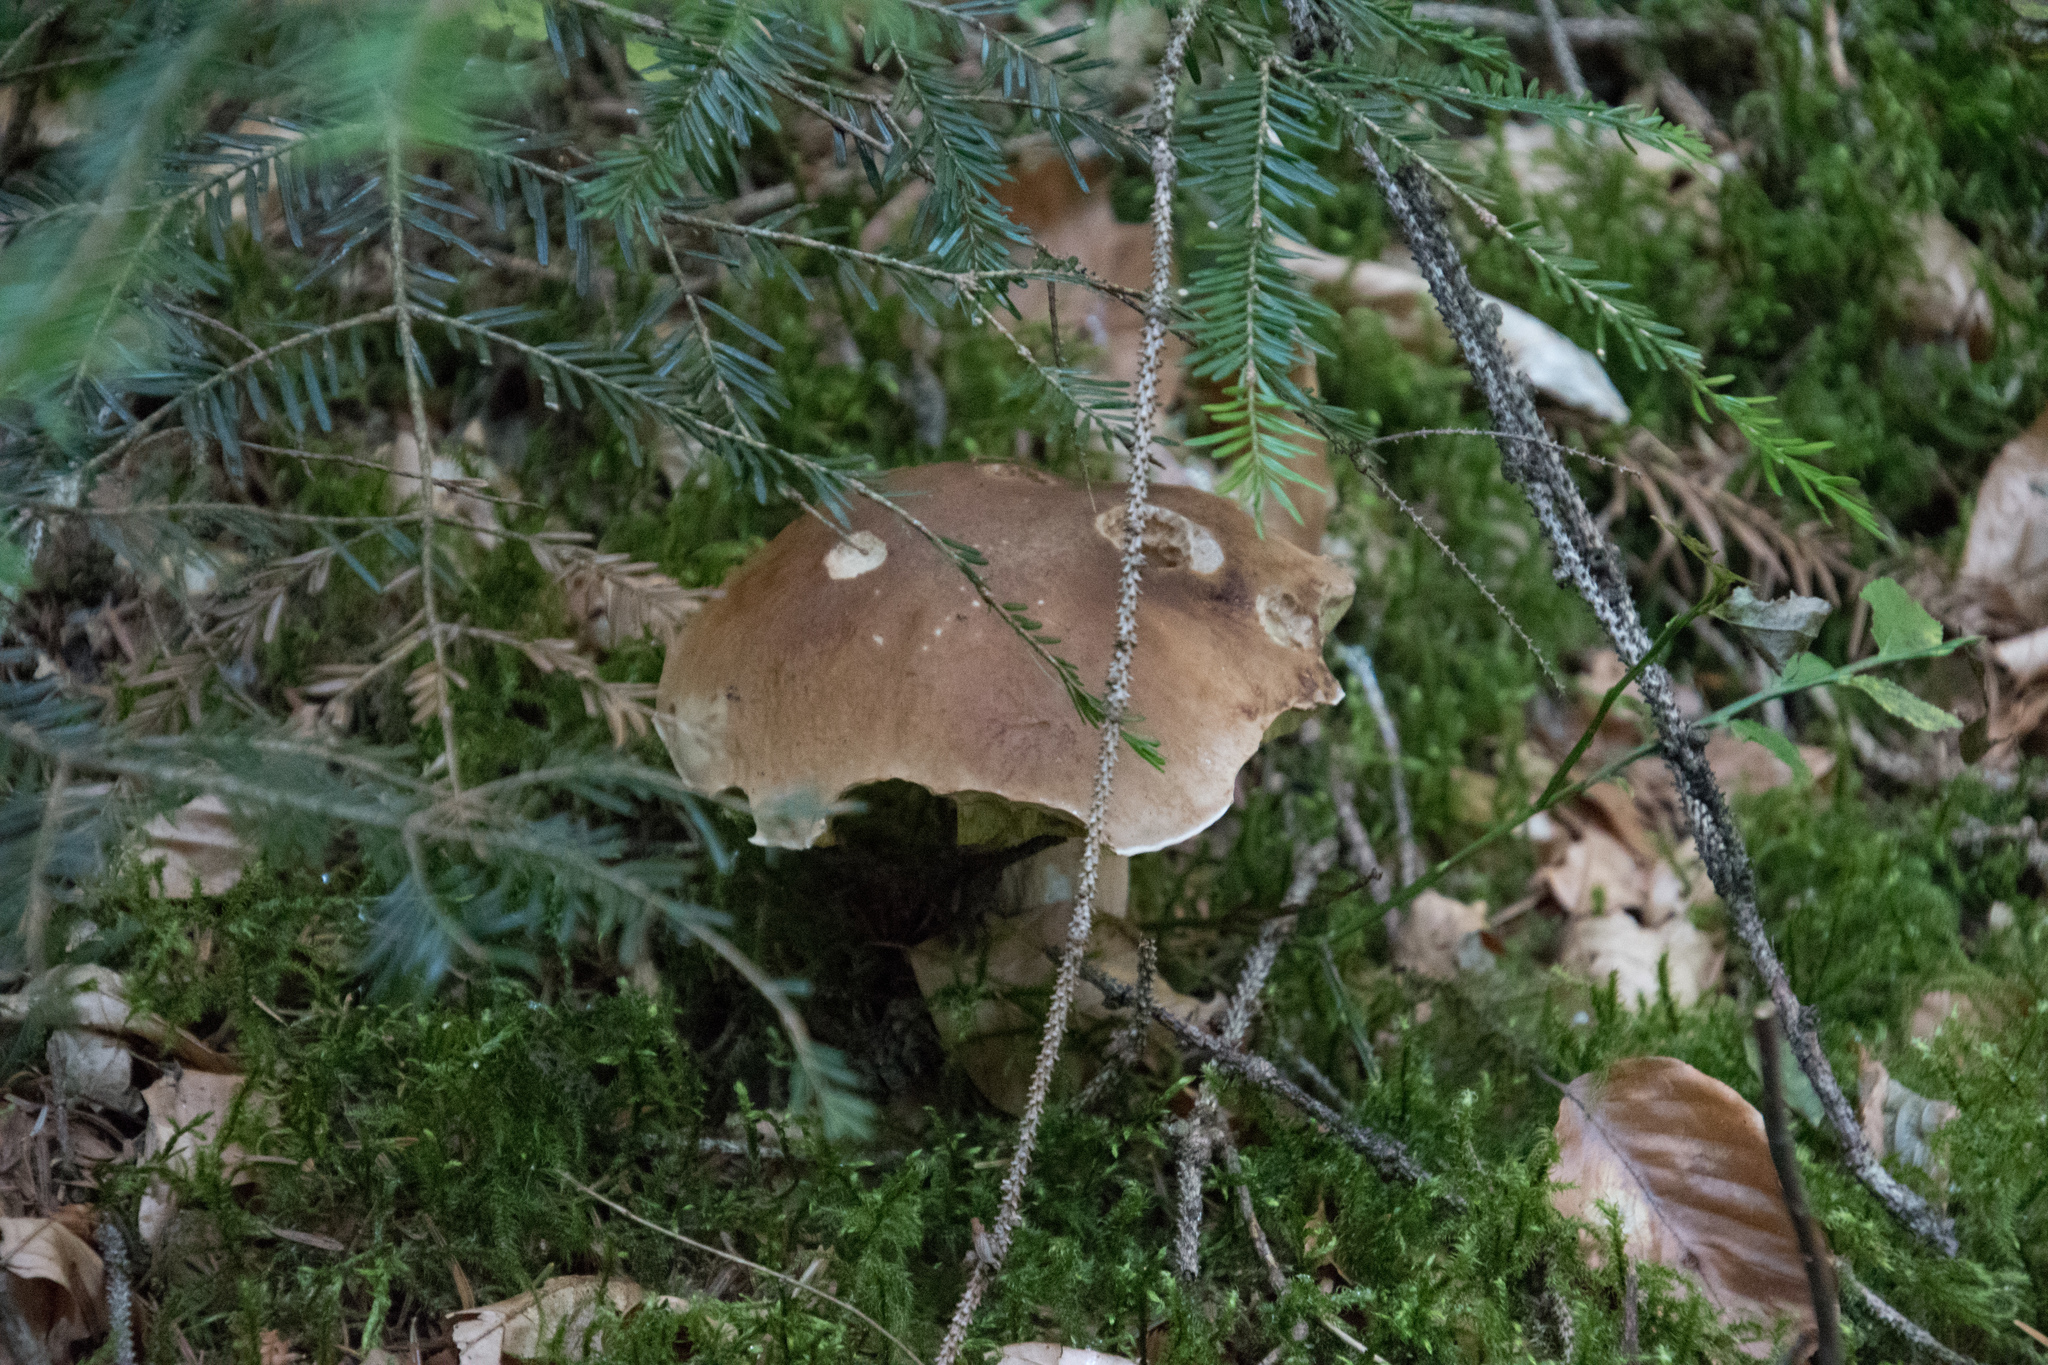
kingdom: Fungi
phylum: Basidiomycota
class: Agaricomycetes
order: Boletales
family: Boletaceae
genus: Boletus
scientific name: Boletus edulis
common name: Cep
